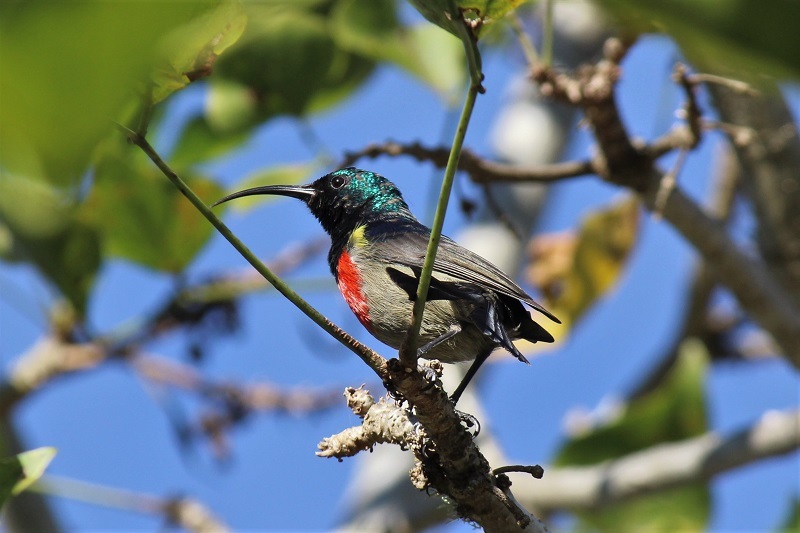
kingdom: Animalia
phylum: Chordata
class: Aves
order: Passeriformes
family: Nectariniidae
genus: Cinnyris
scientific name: Cinnyris afer
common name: Greater double-collared sunbird
